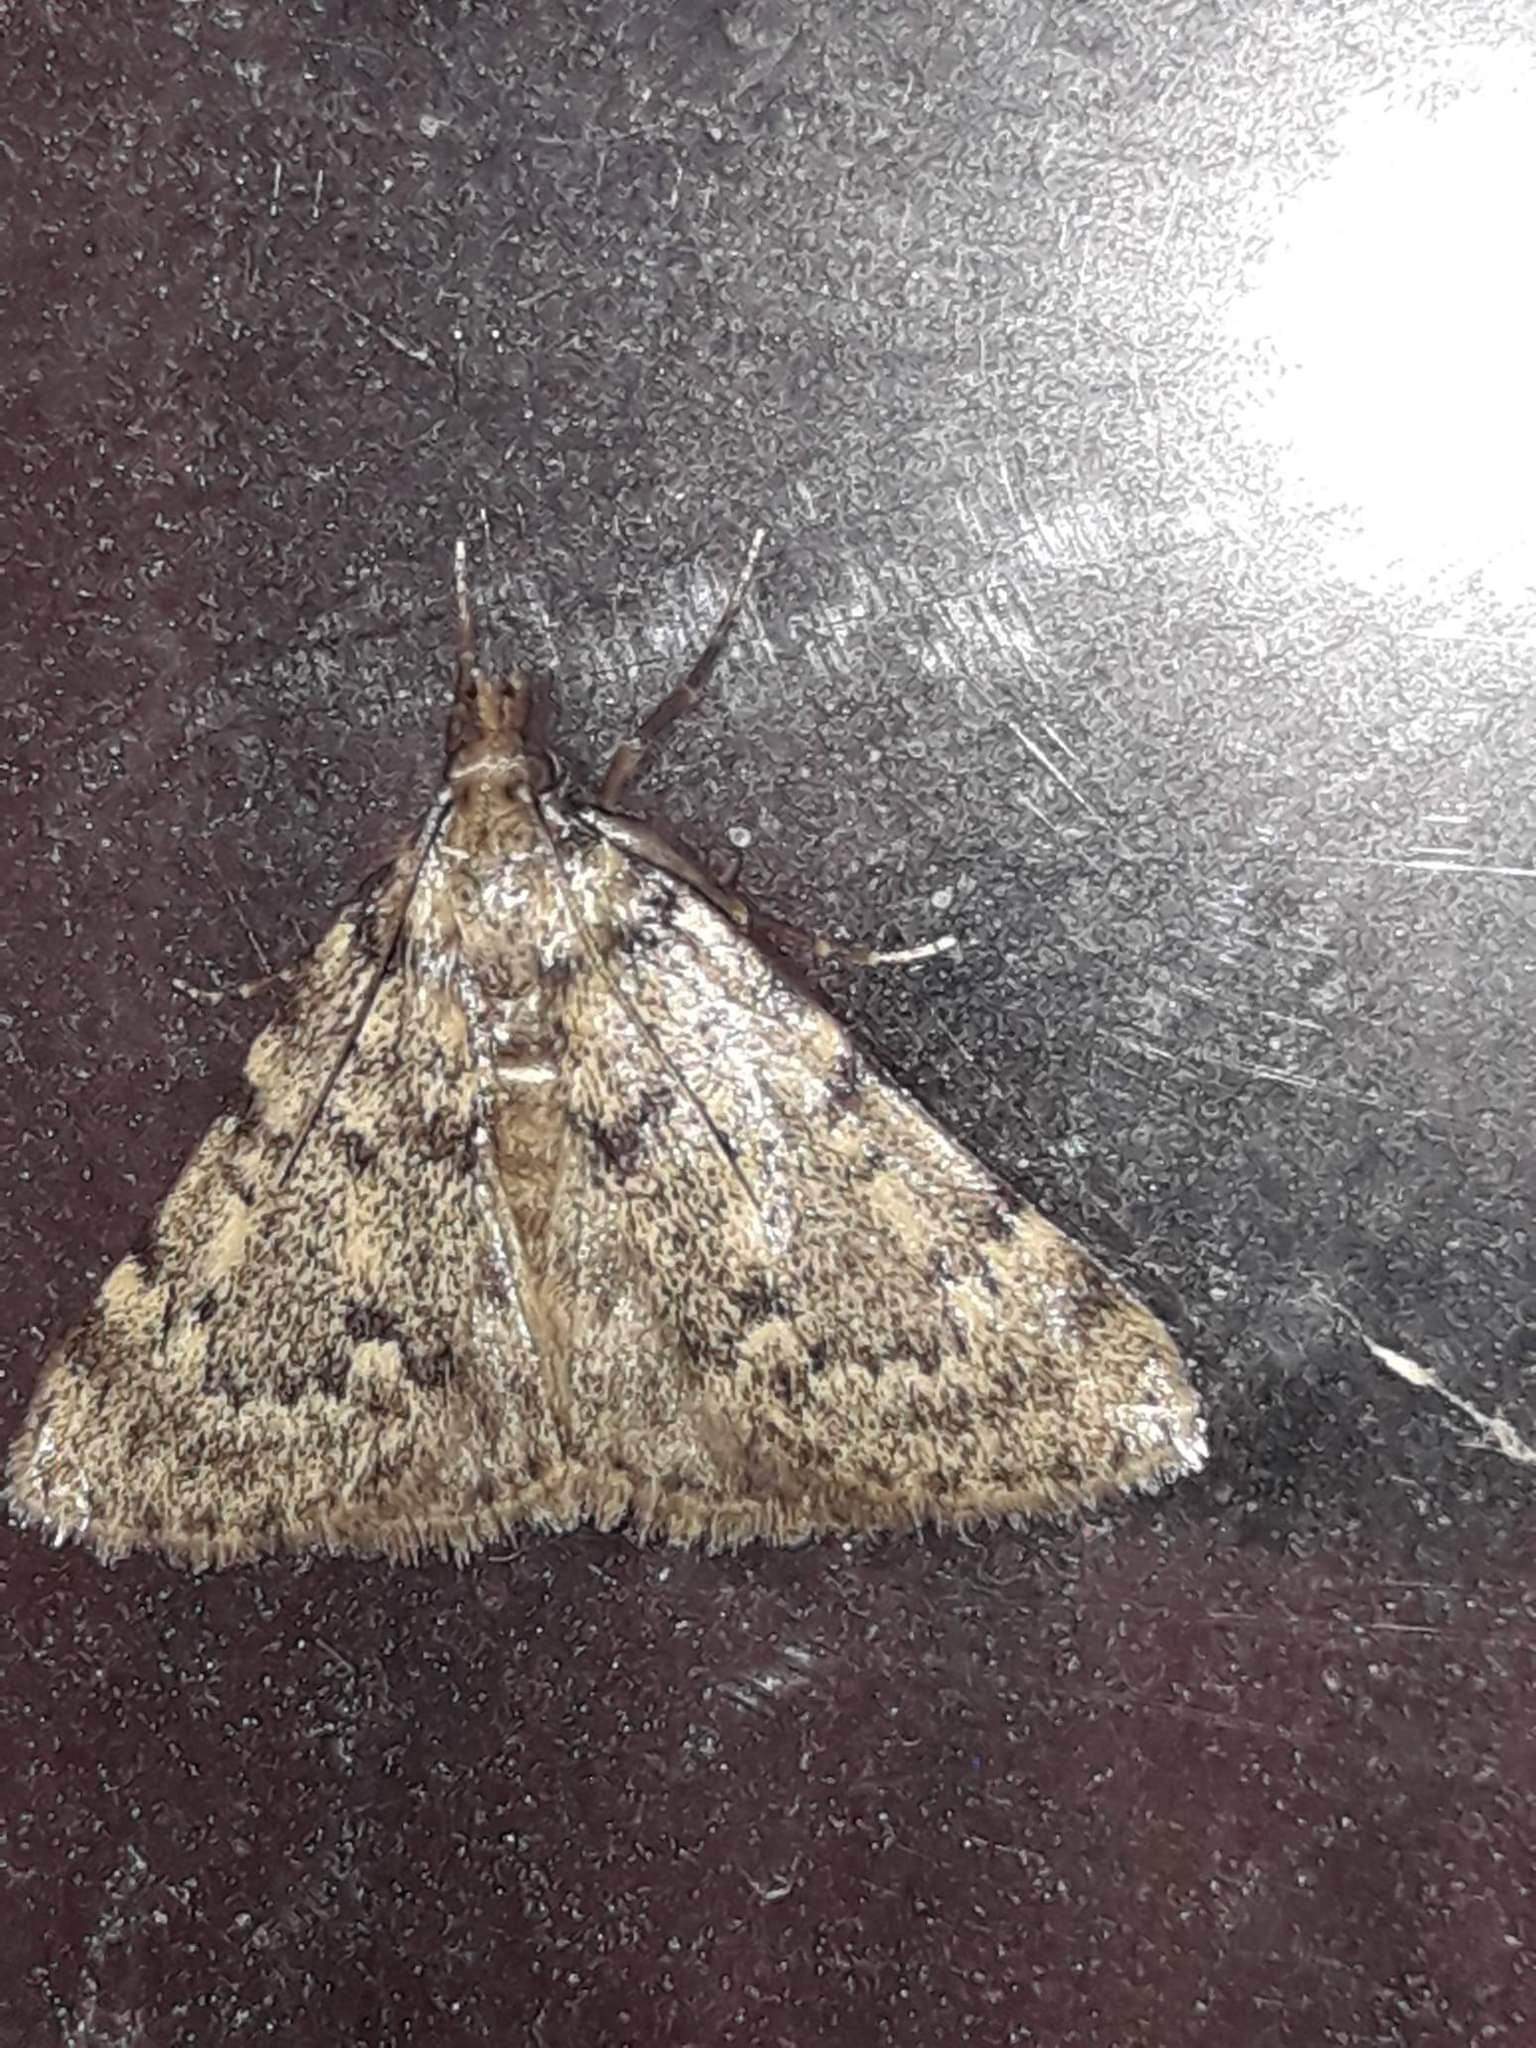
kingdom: Animalia
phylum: Arthropoda
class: Insecta
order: Lepidoptera
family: Pyralidae
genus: Aglossa
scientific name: Aglossa pinguinalis
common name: Large tabby
